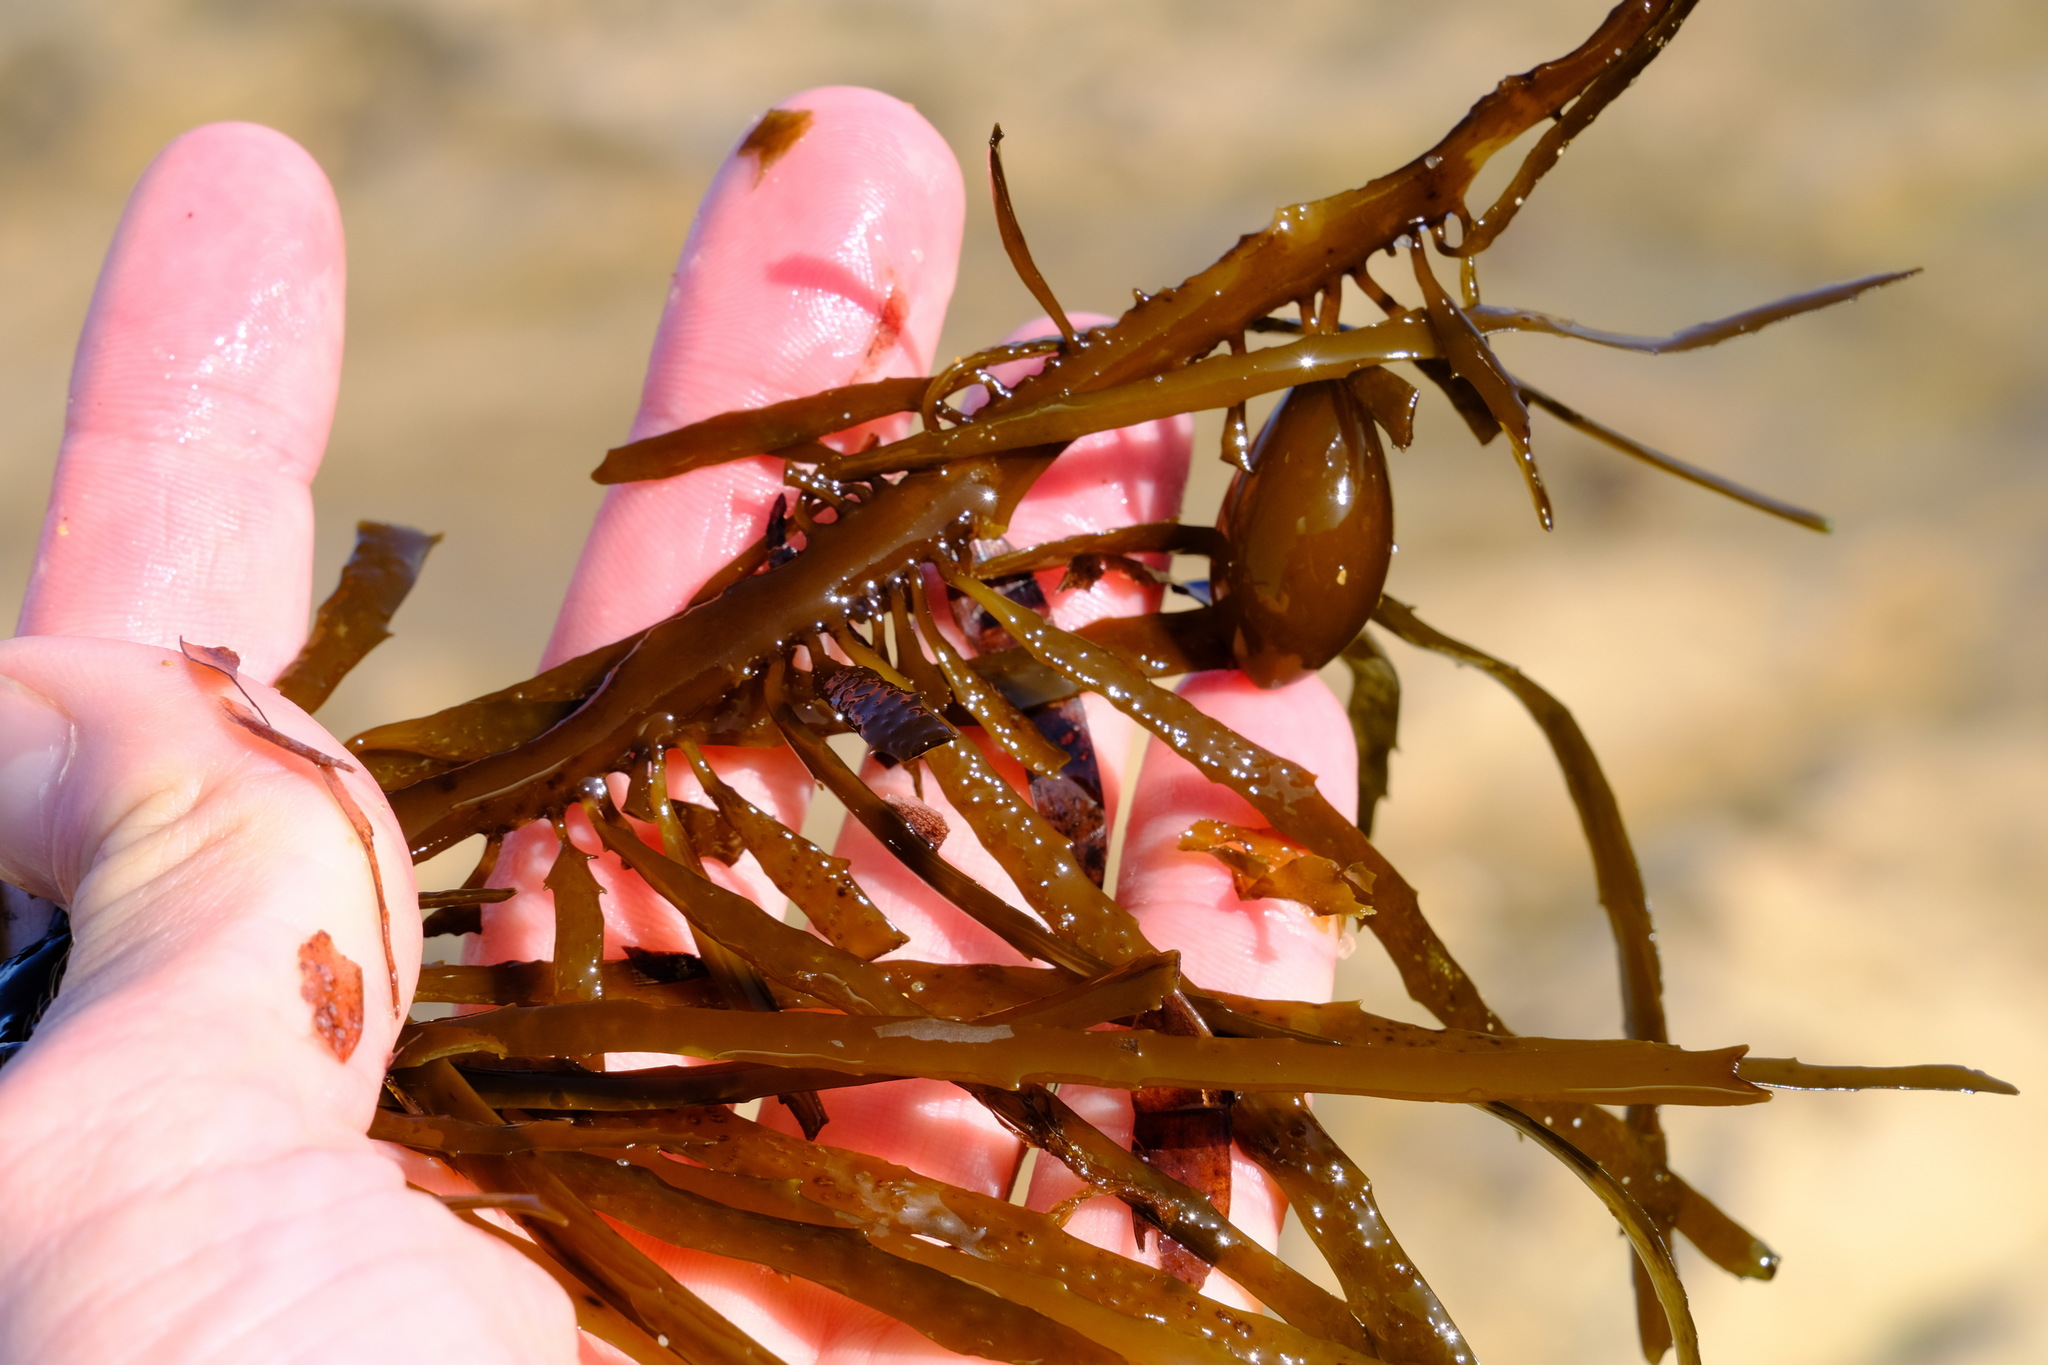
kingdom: Chromista
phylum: Ochrophyta
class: Phaeophyceae
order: Fucales
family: Seirococcaceae
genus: Phyllospora
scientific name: Phyllospora
